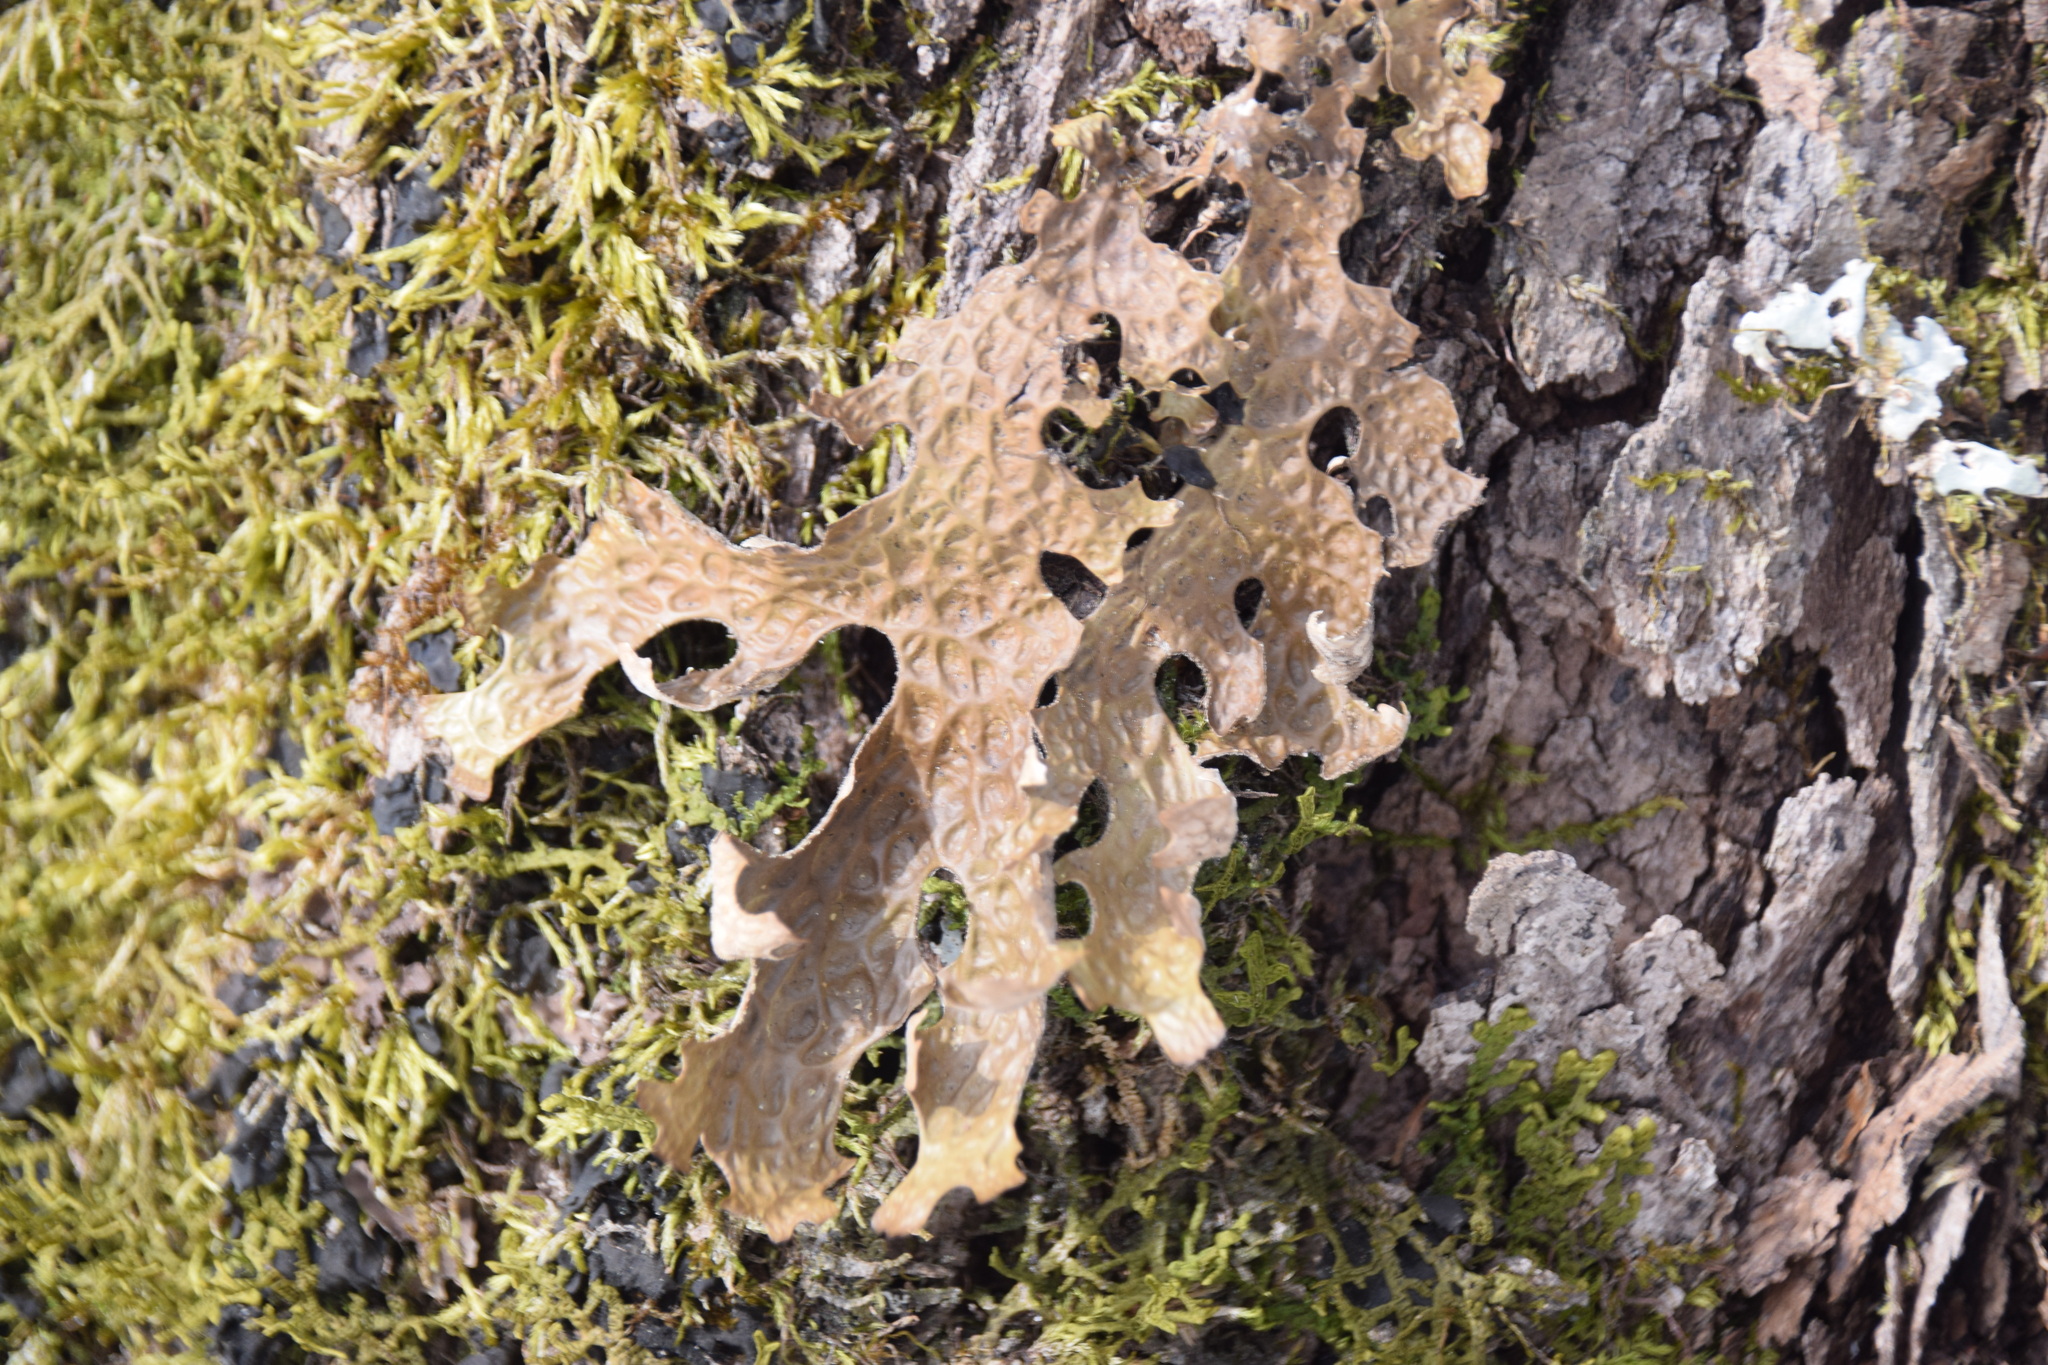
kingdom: Fungi
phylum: Ascomycota
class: Lecanoromycetes
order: Peltigerales
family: Lobariaceae
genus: Lobaria
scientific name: Lobaria pulmonaria
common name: Lungwort
